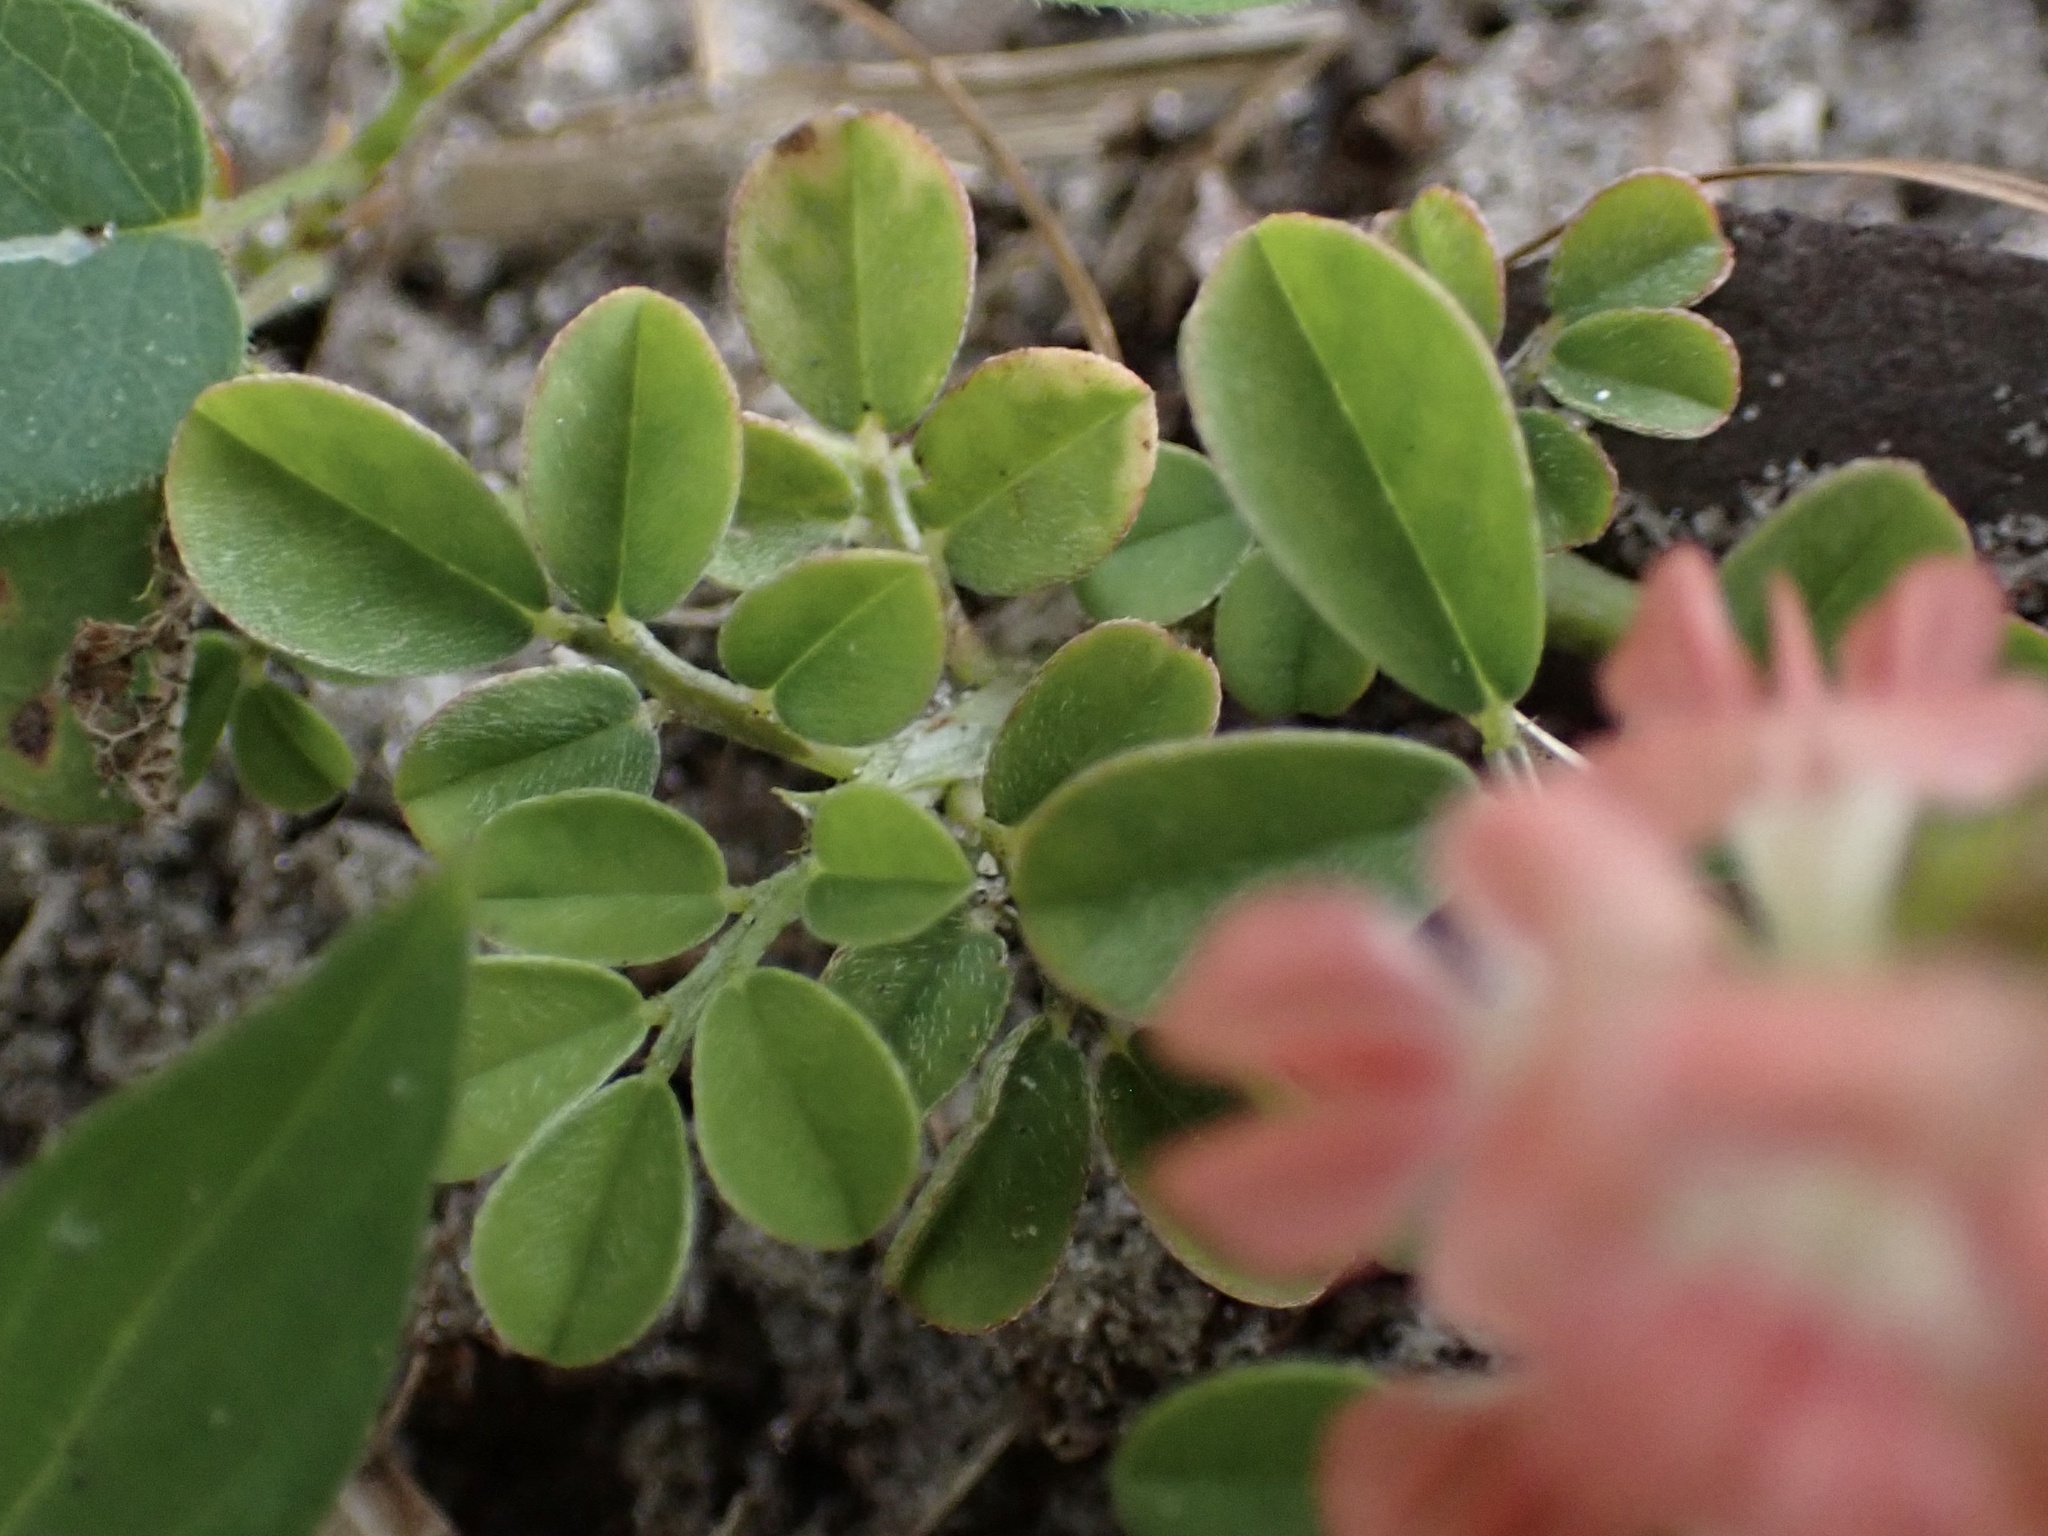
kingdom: Plantae
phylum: Tracheophyta
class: Magnoliopsida
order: Fabales
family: Fabaceae
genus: Indigofera
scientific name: Indigofera spicata
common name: Creeping indigo
